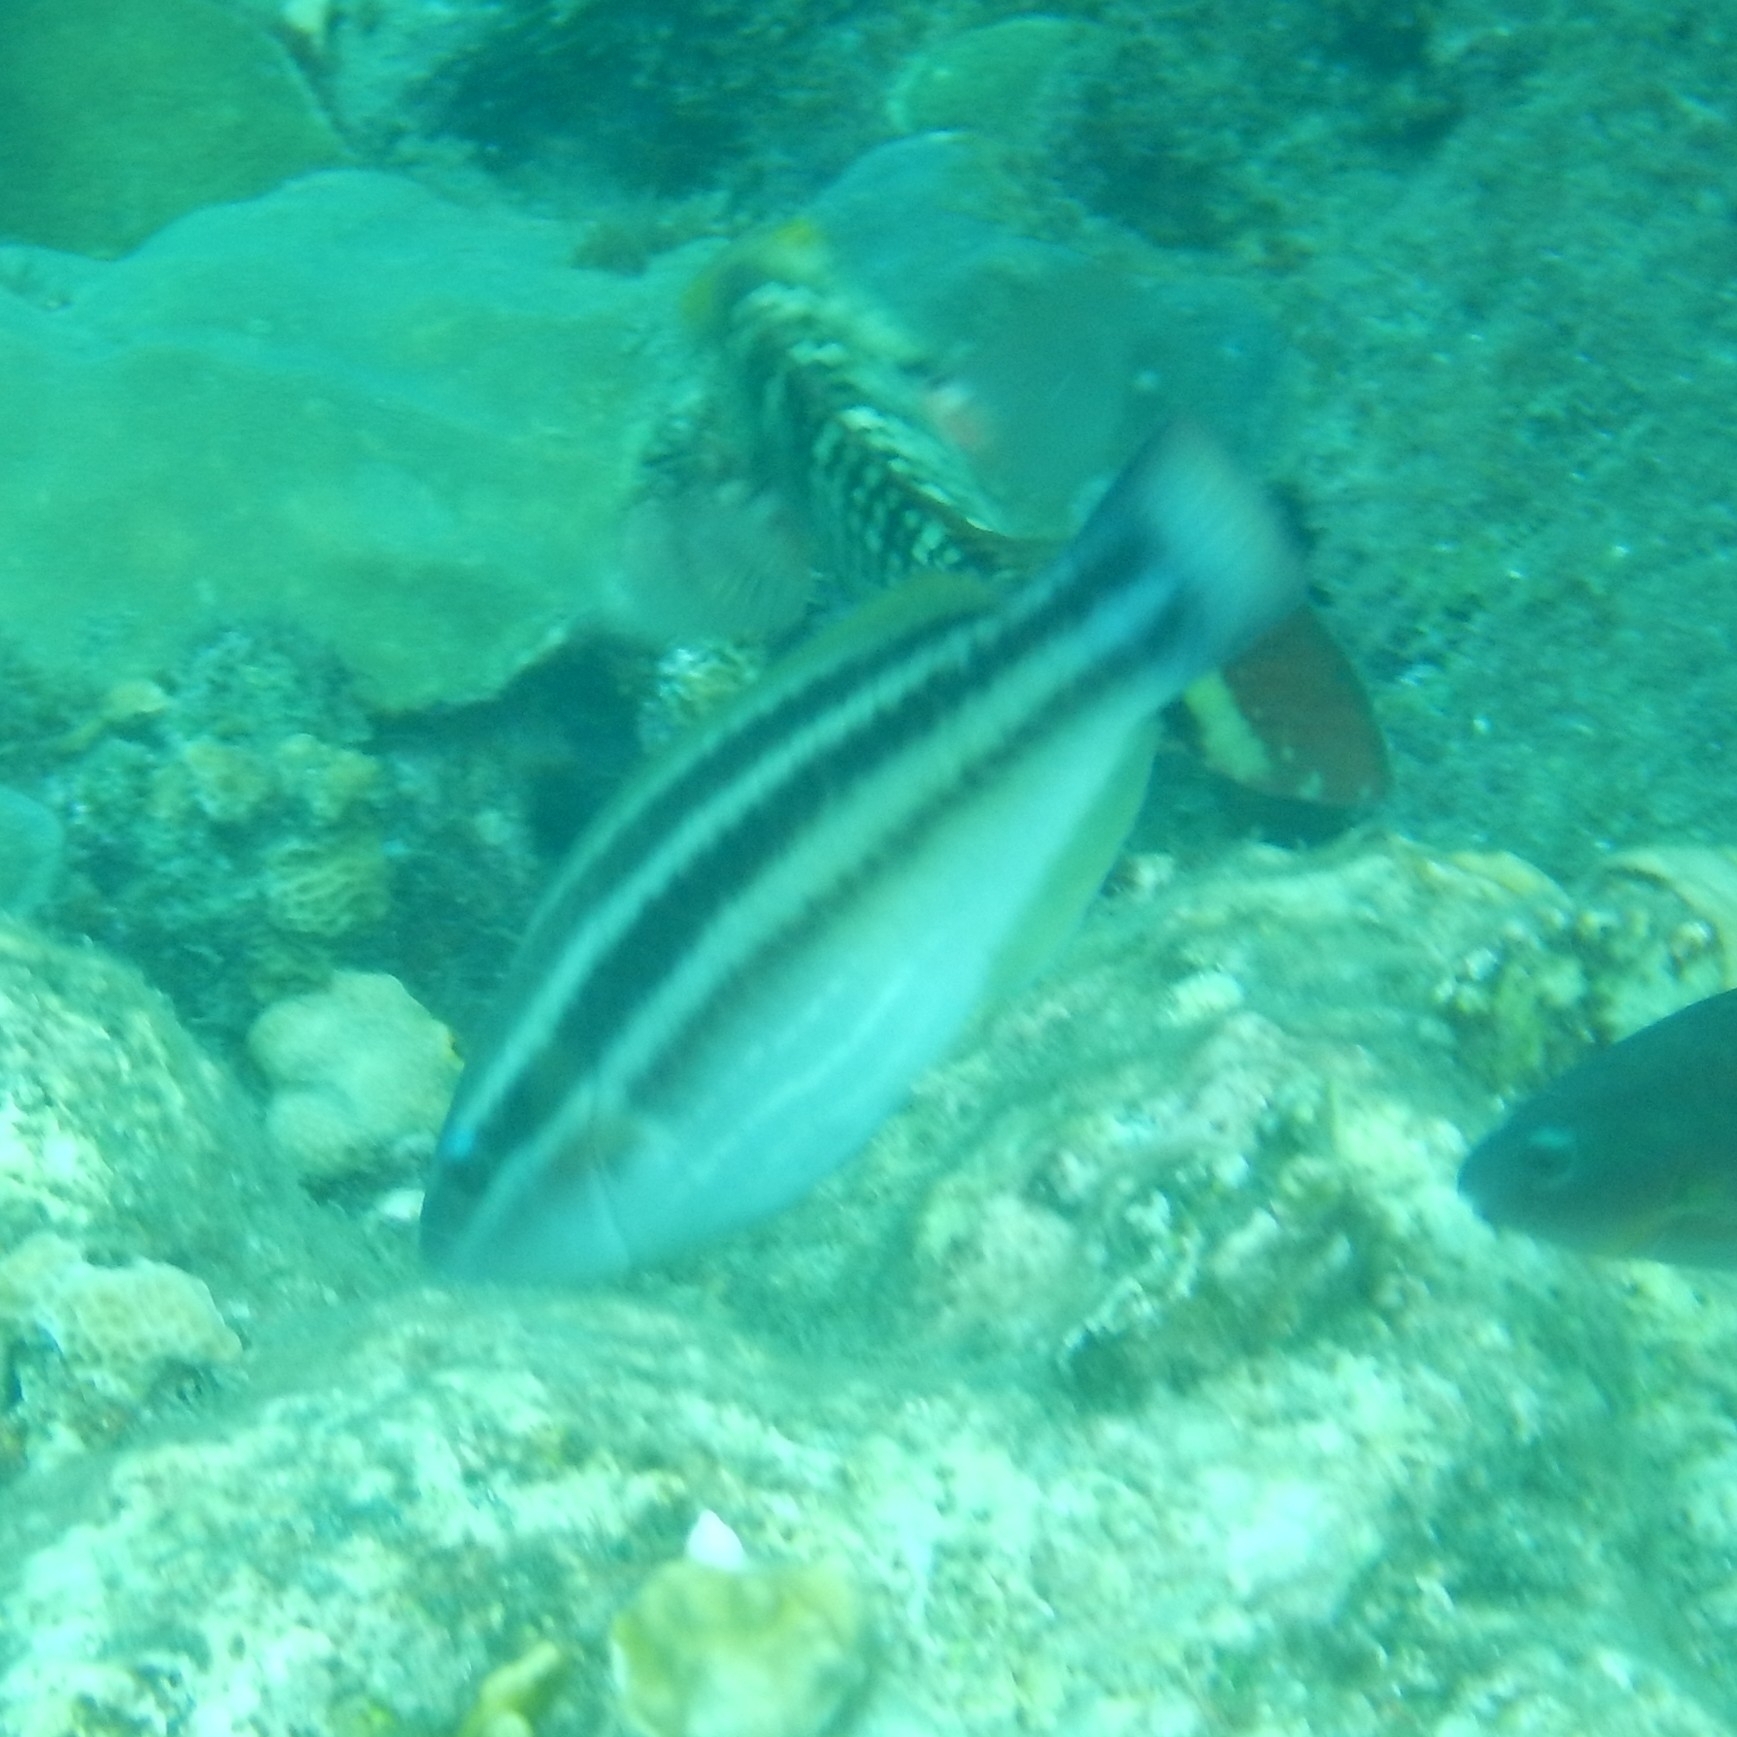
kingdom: Animalia
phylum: Chordata
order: Perciformes
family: Scaridae
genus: Scarus
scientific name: Scarus taeniopterus
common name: Princess parrotfish
